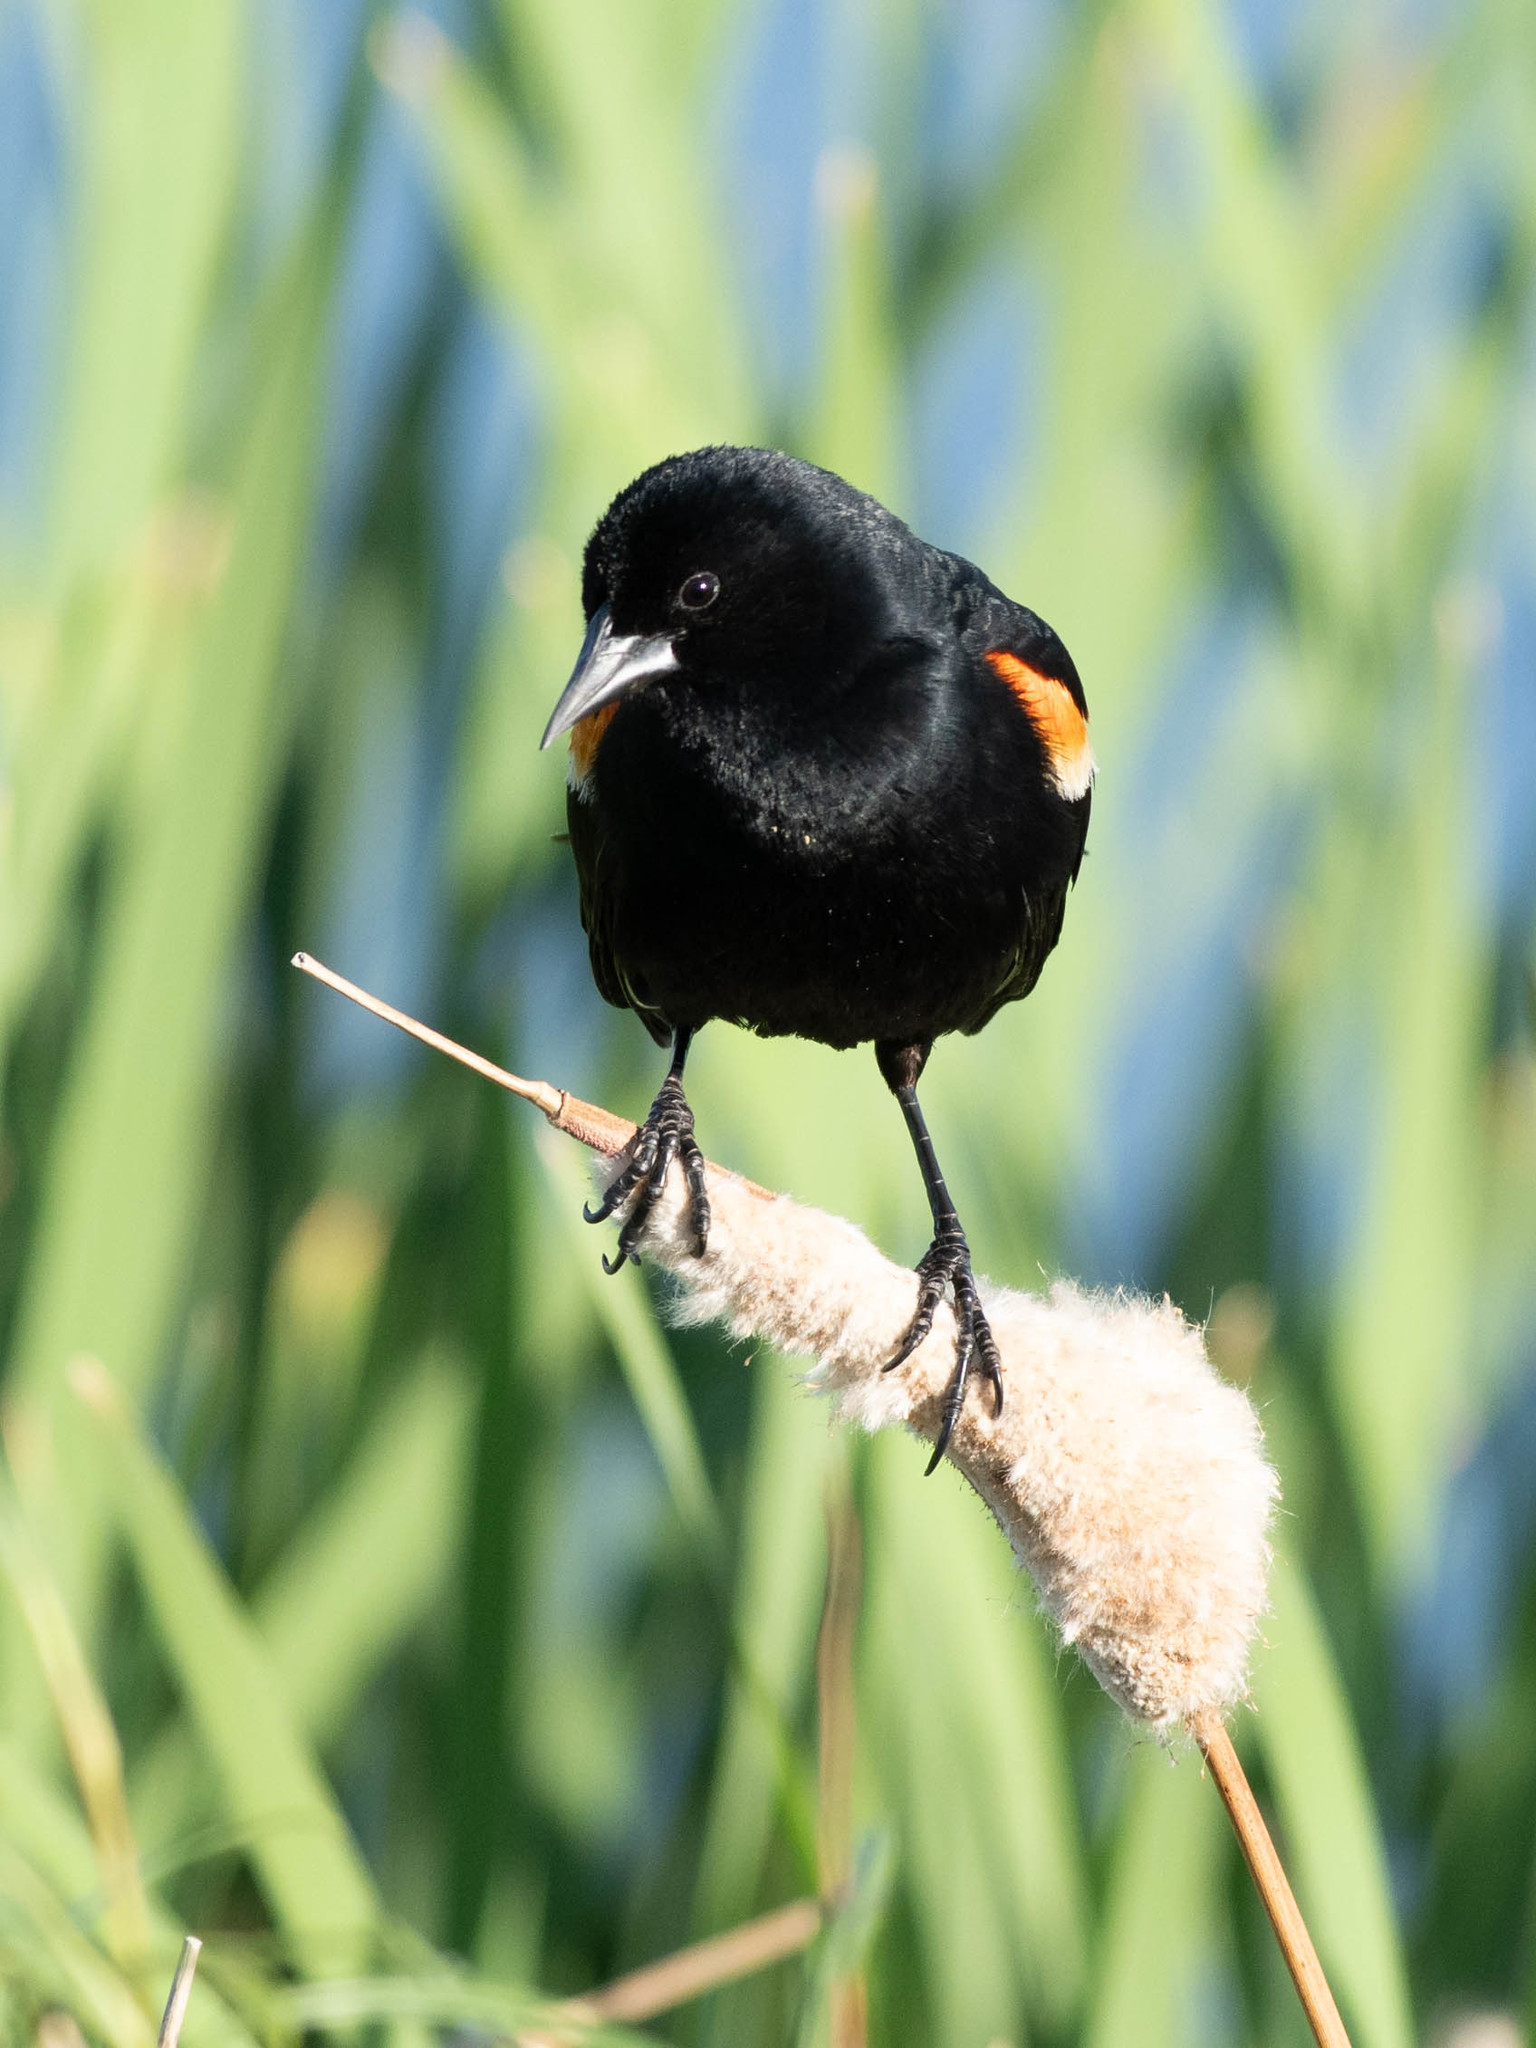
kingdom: Animalia
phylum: Chordata
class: Aves
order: Passeriformes
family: Icteridae
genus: Agelaius
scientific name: Agelaius phoeniceus
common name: Red-winged blackbird
